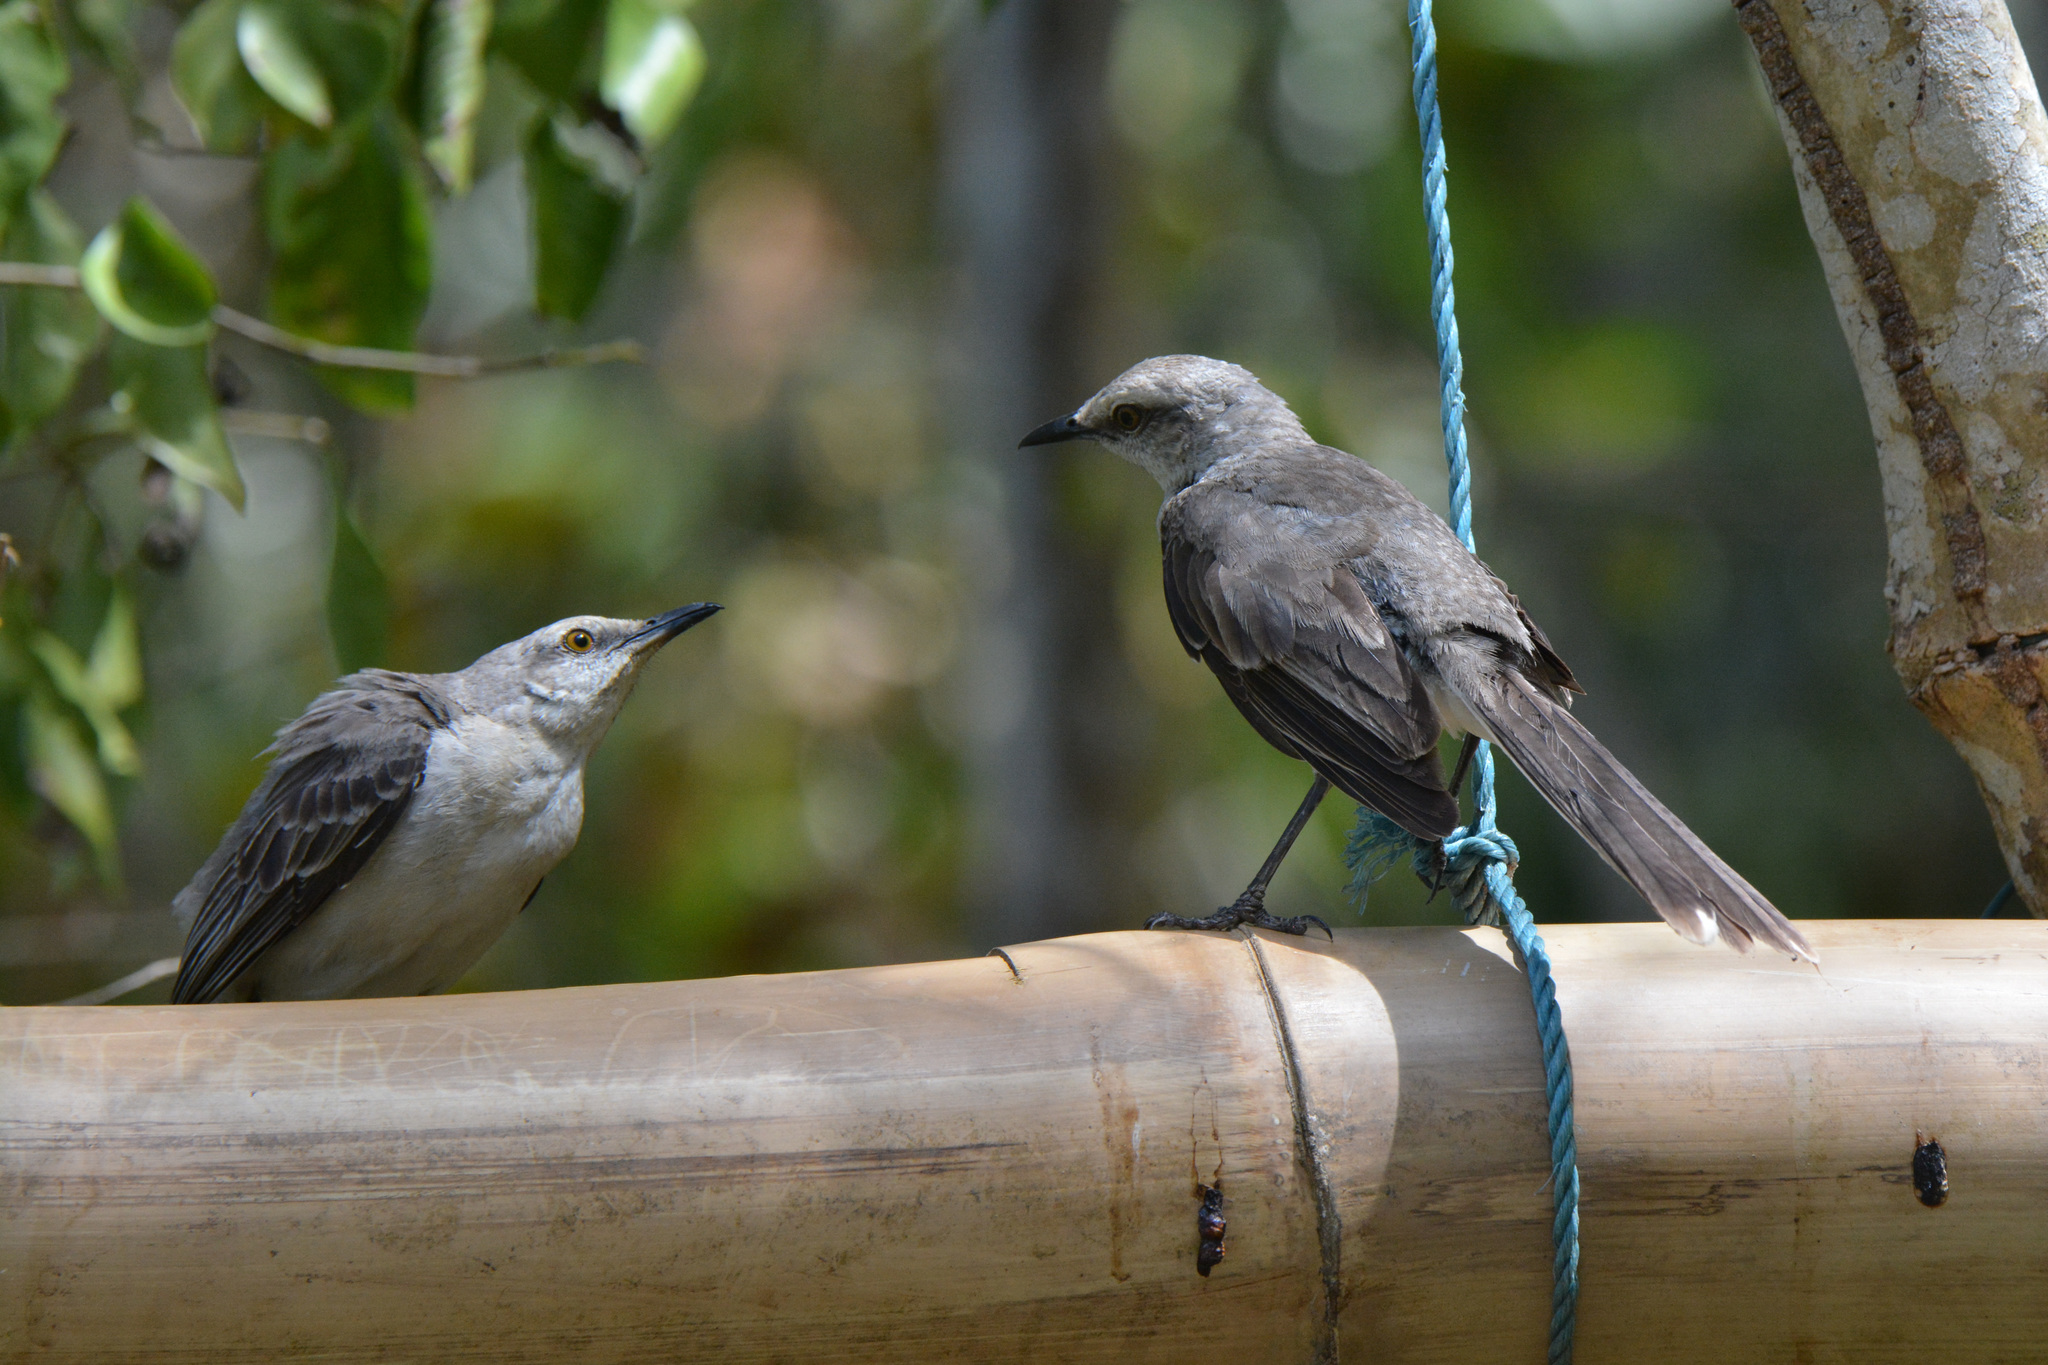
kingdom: Animalia
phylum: Chordata
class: Aves
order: Passeriformes
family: Mimidae
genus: Mimus
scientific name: Mimus gilvus
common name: Tropical mockingbird
